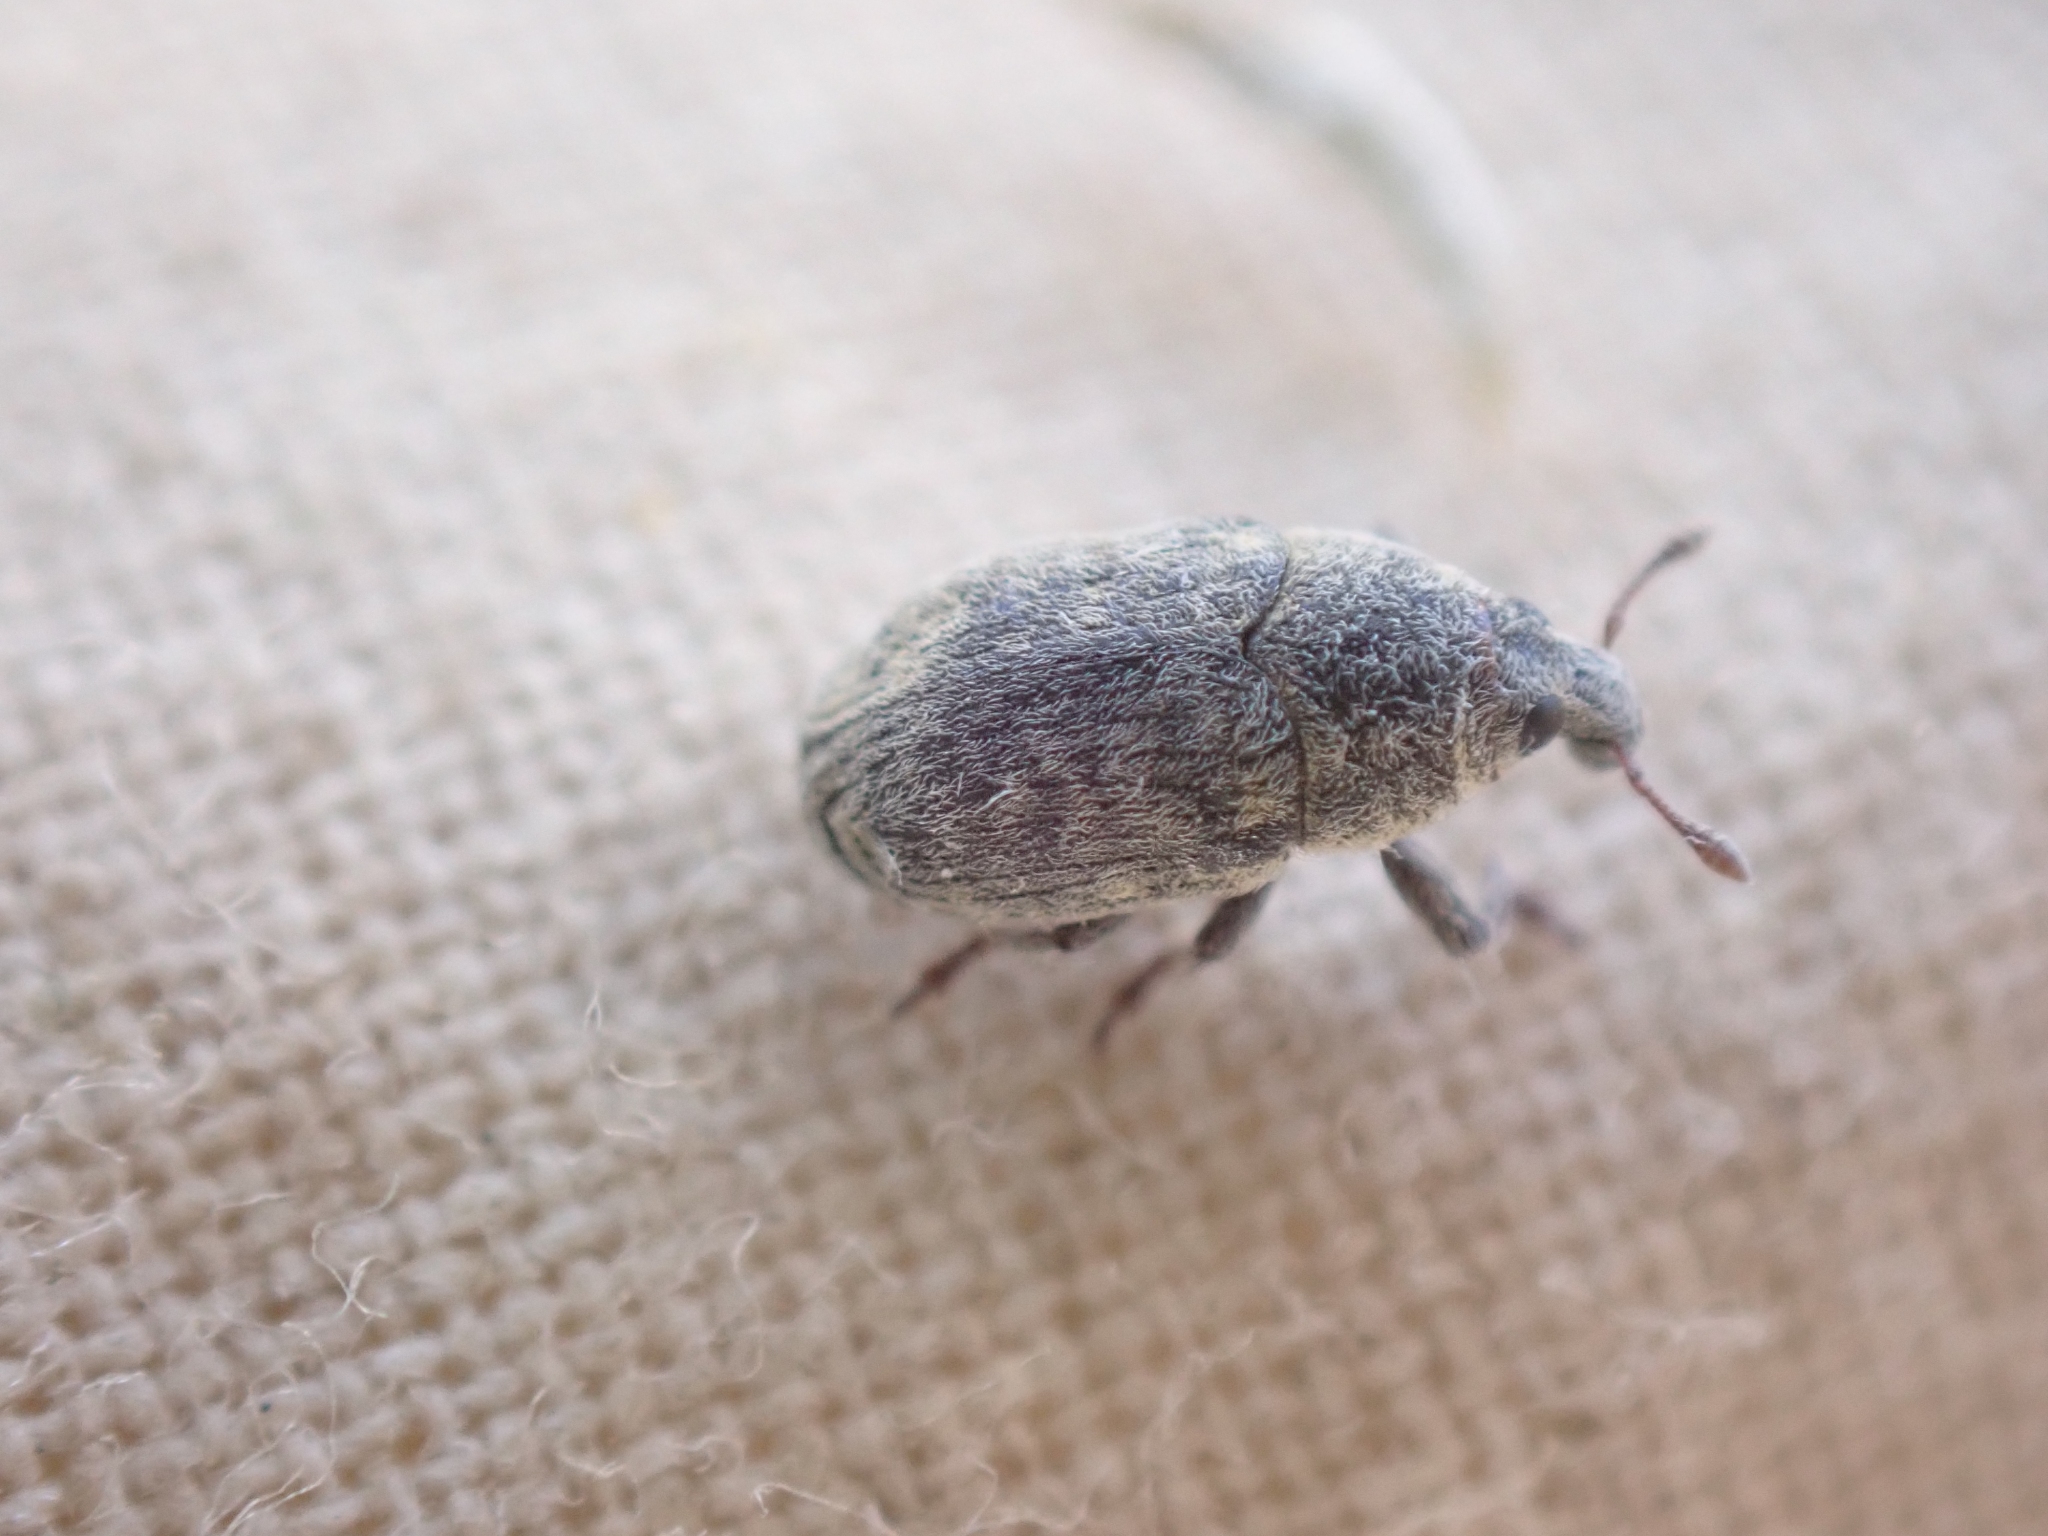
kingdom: Animalia
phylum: Arthropoda
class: Insecta
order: Coleoptera
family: Curculionidae
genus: Larinus
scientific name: Larinus minutus
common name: Weevil
